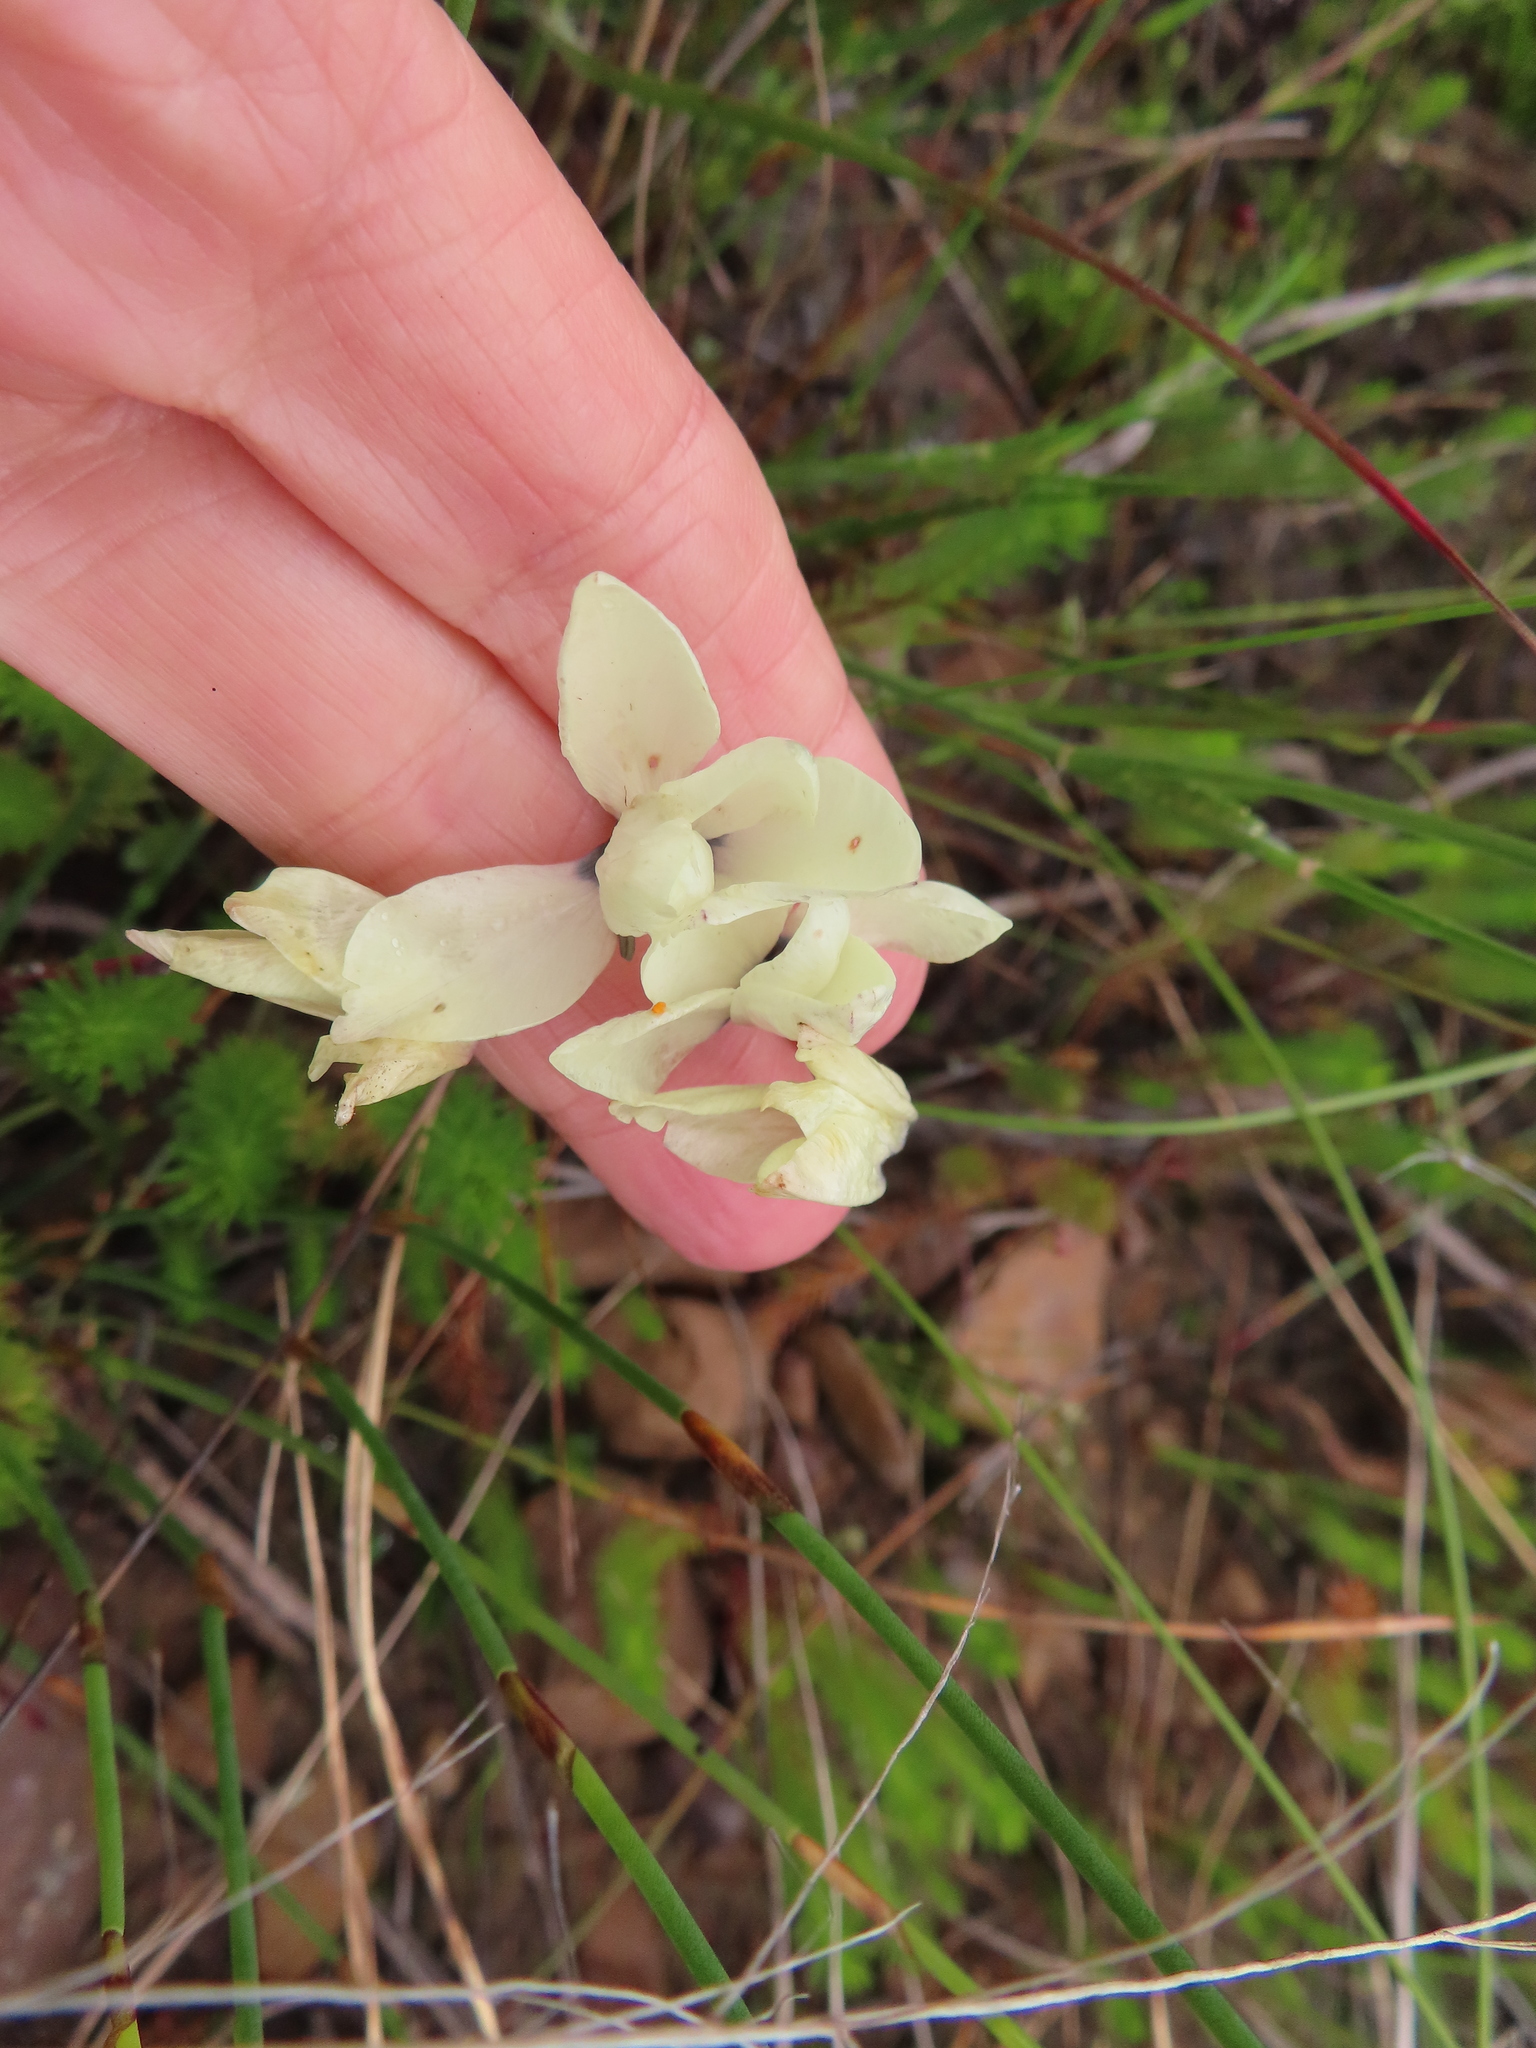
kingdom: Plantae
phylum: Tracheophyta
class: Liliopsida
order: Asparagales
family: Iridaceae
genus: Ixia
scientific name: Ixia abbreviata
